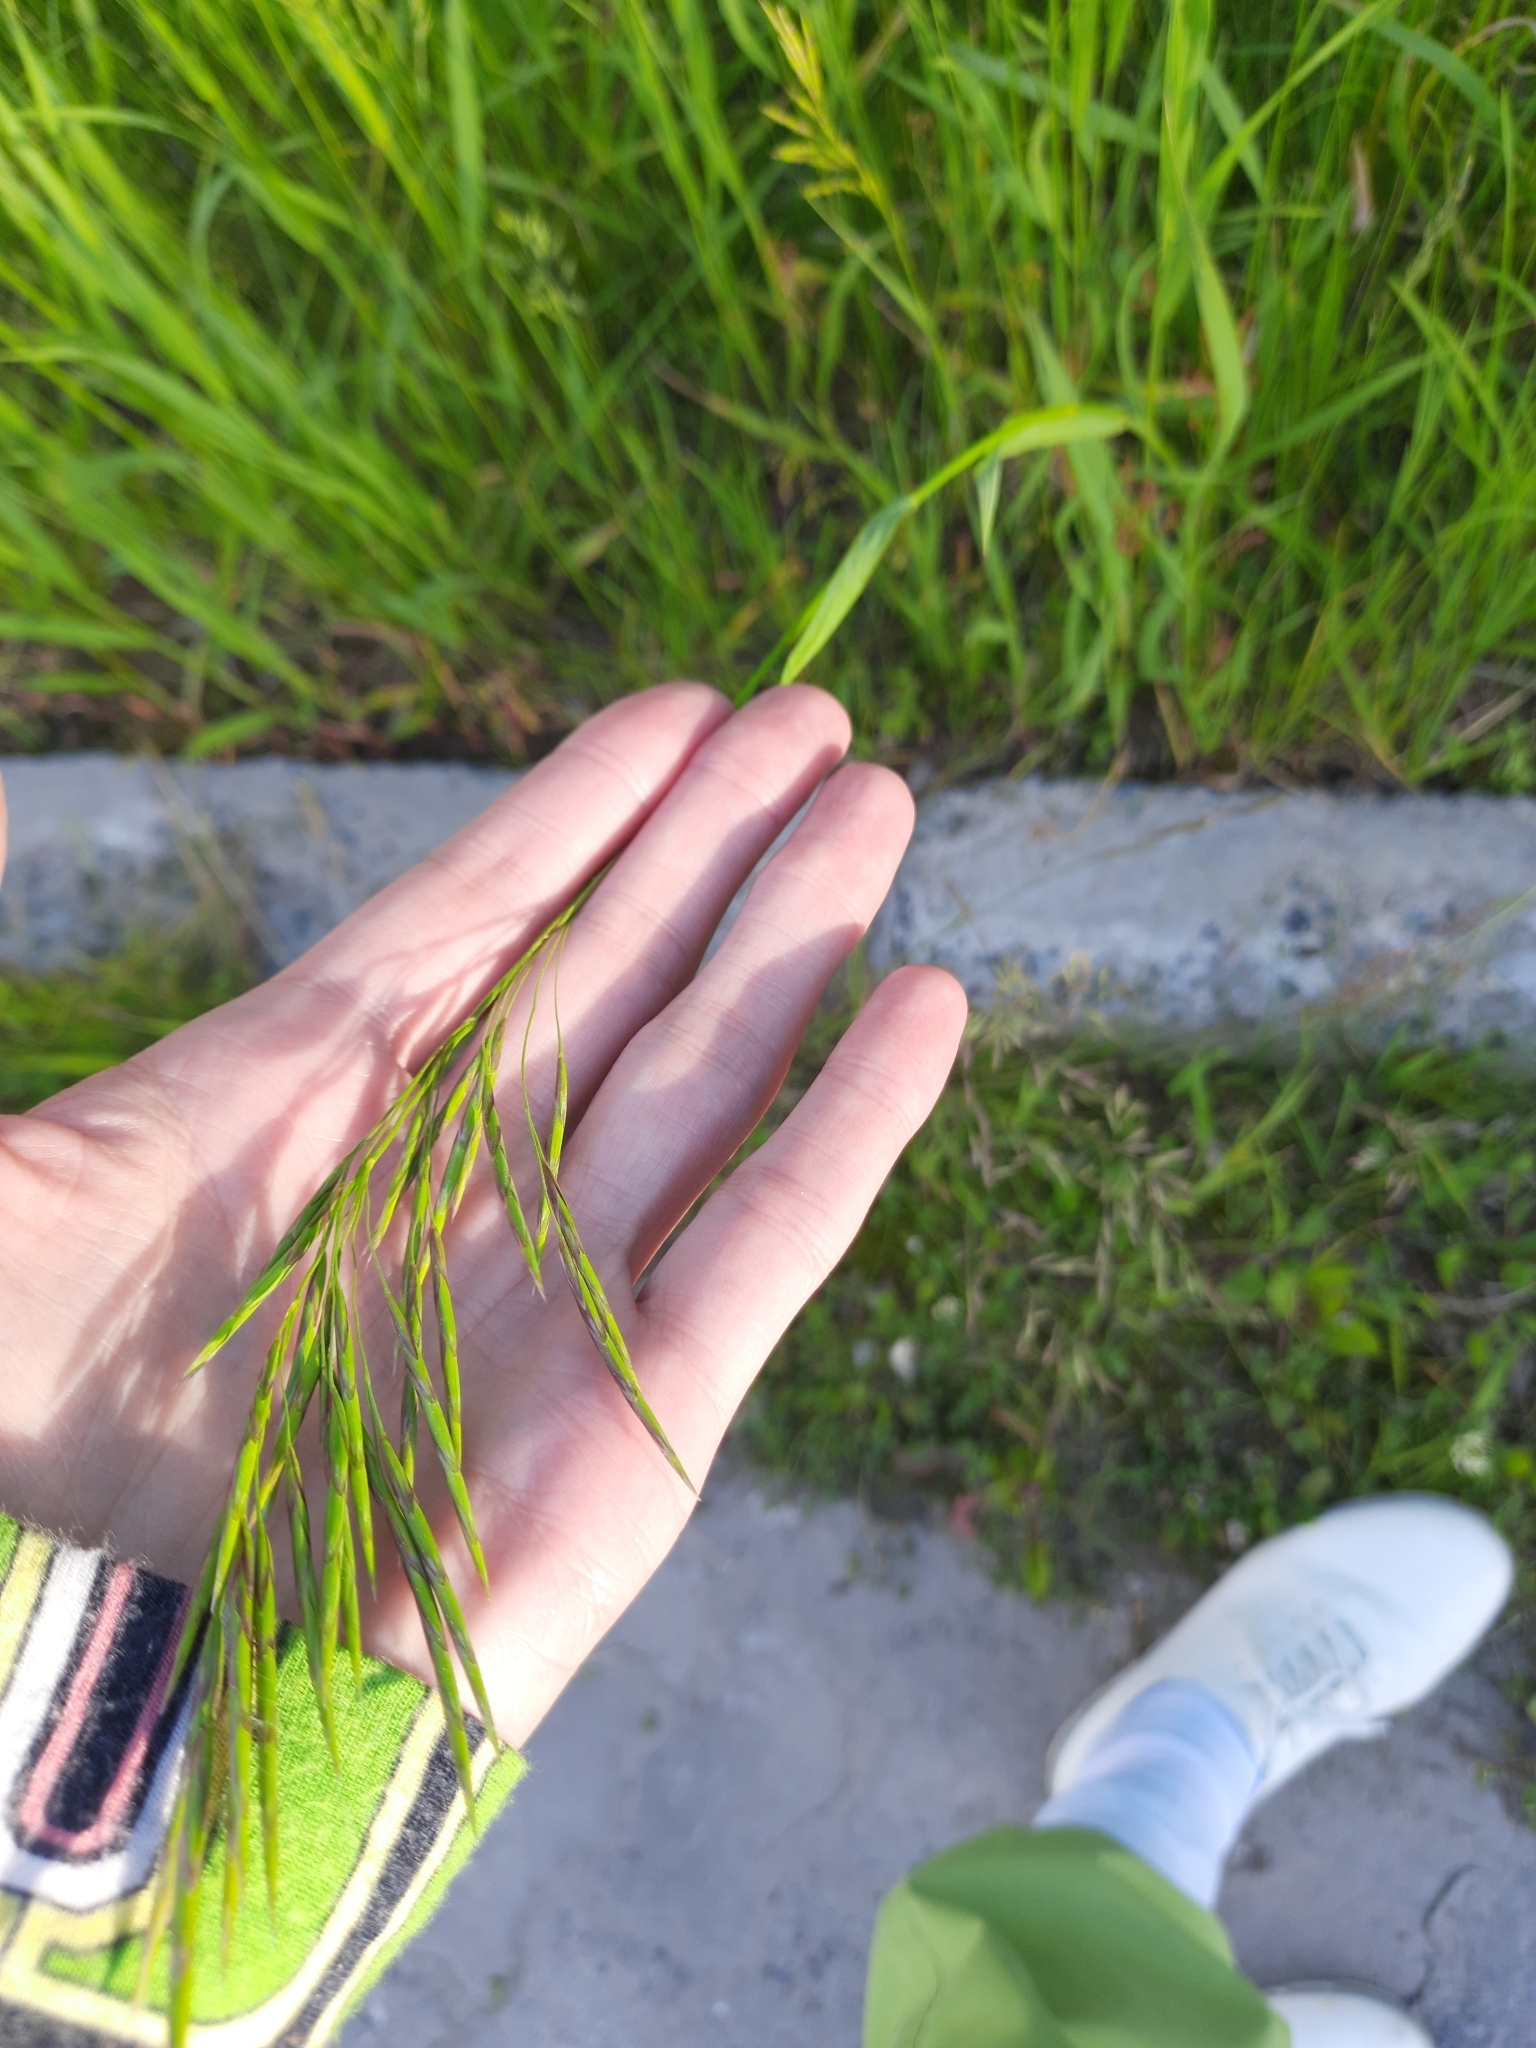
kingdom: Plantae
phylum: Tracheophyta
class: Liliopsida
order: Poales
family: Poaceae
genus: Bromus
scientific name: Bromus inermis
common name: Smooth brome
